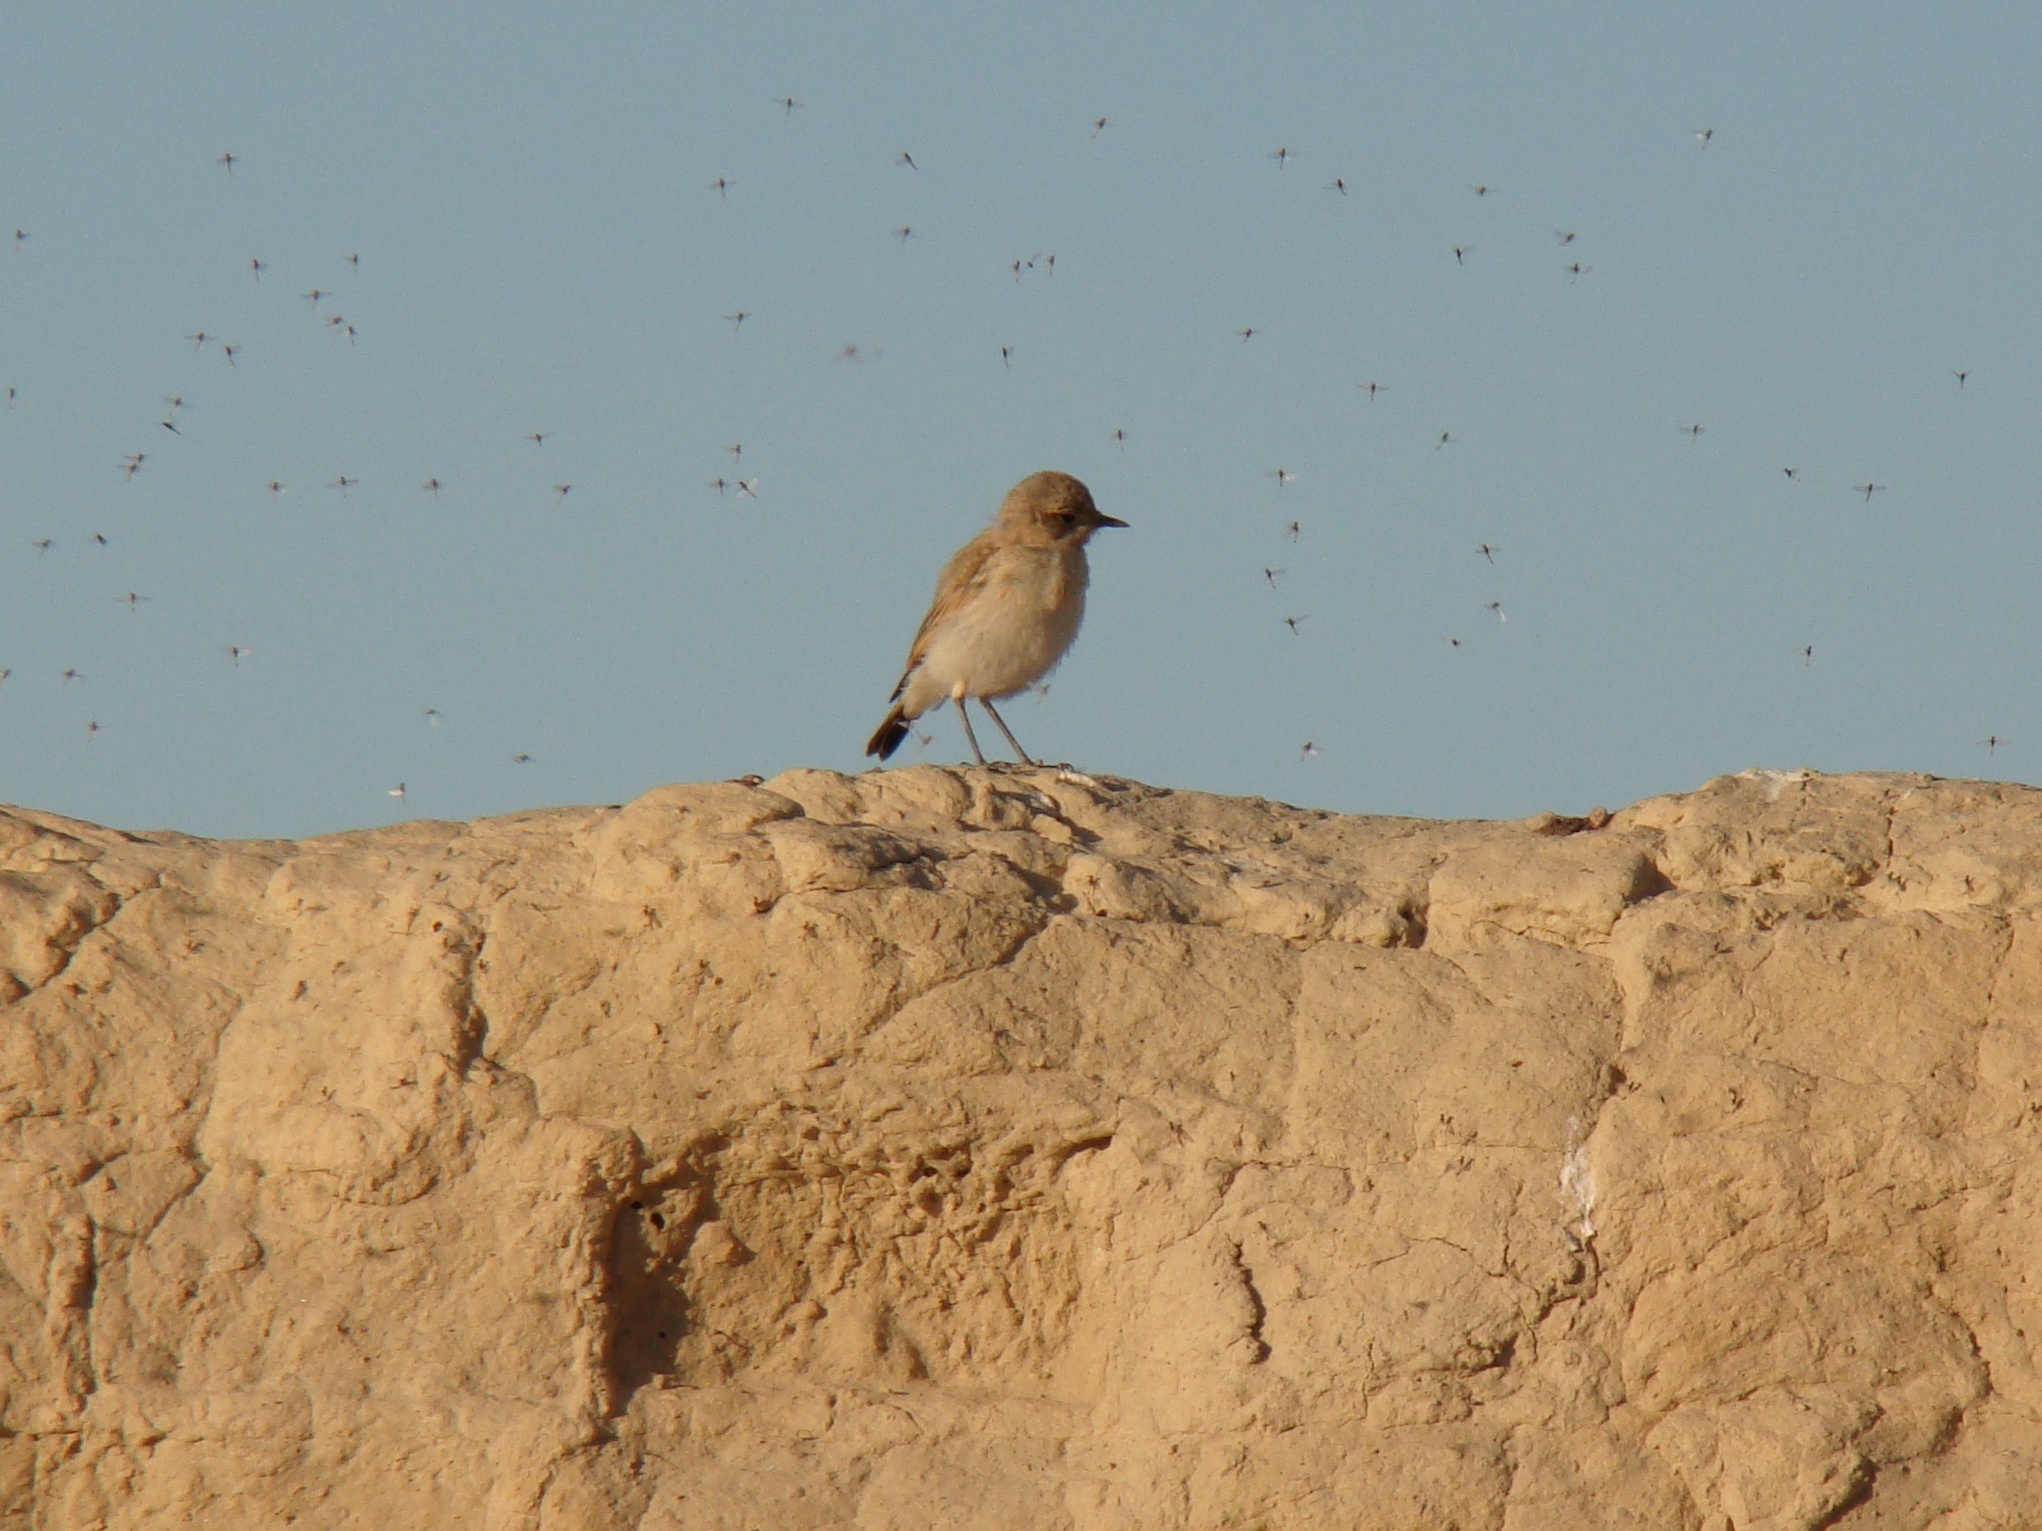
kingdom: Animalia
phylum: Chordata
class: Aves
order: Passeriformes
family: Muscicapidae
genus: Oenanthe
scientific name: Oenanthe isabellina
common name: Isabelline wheatear
